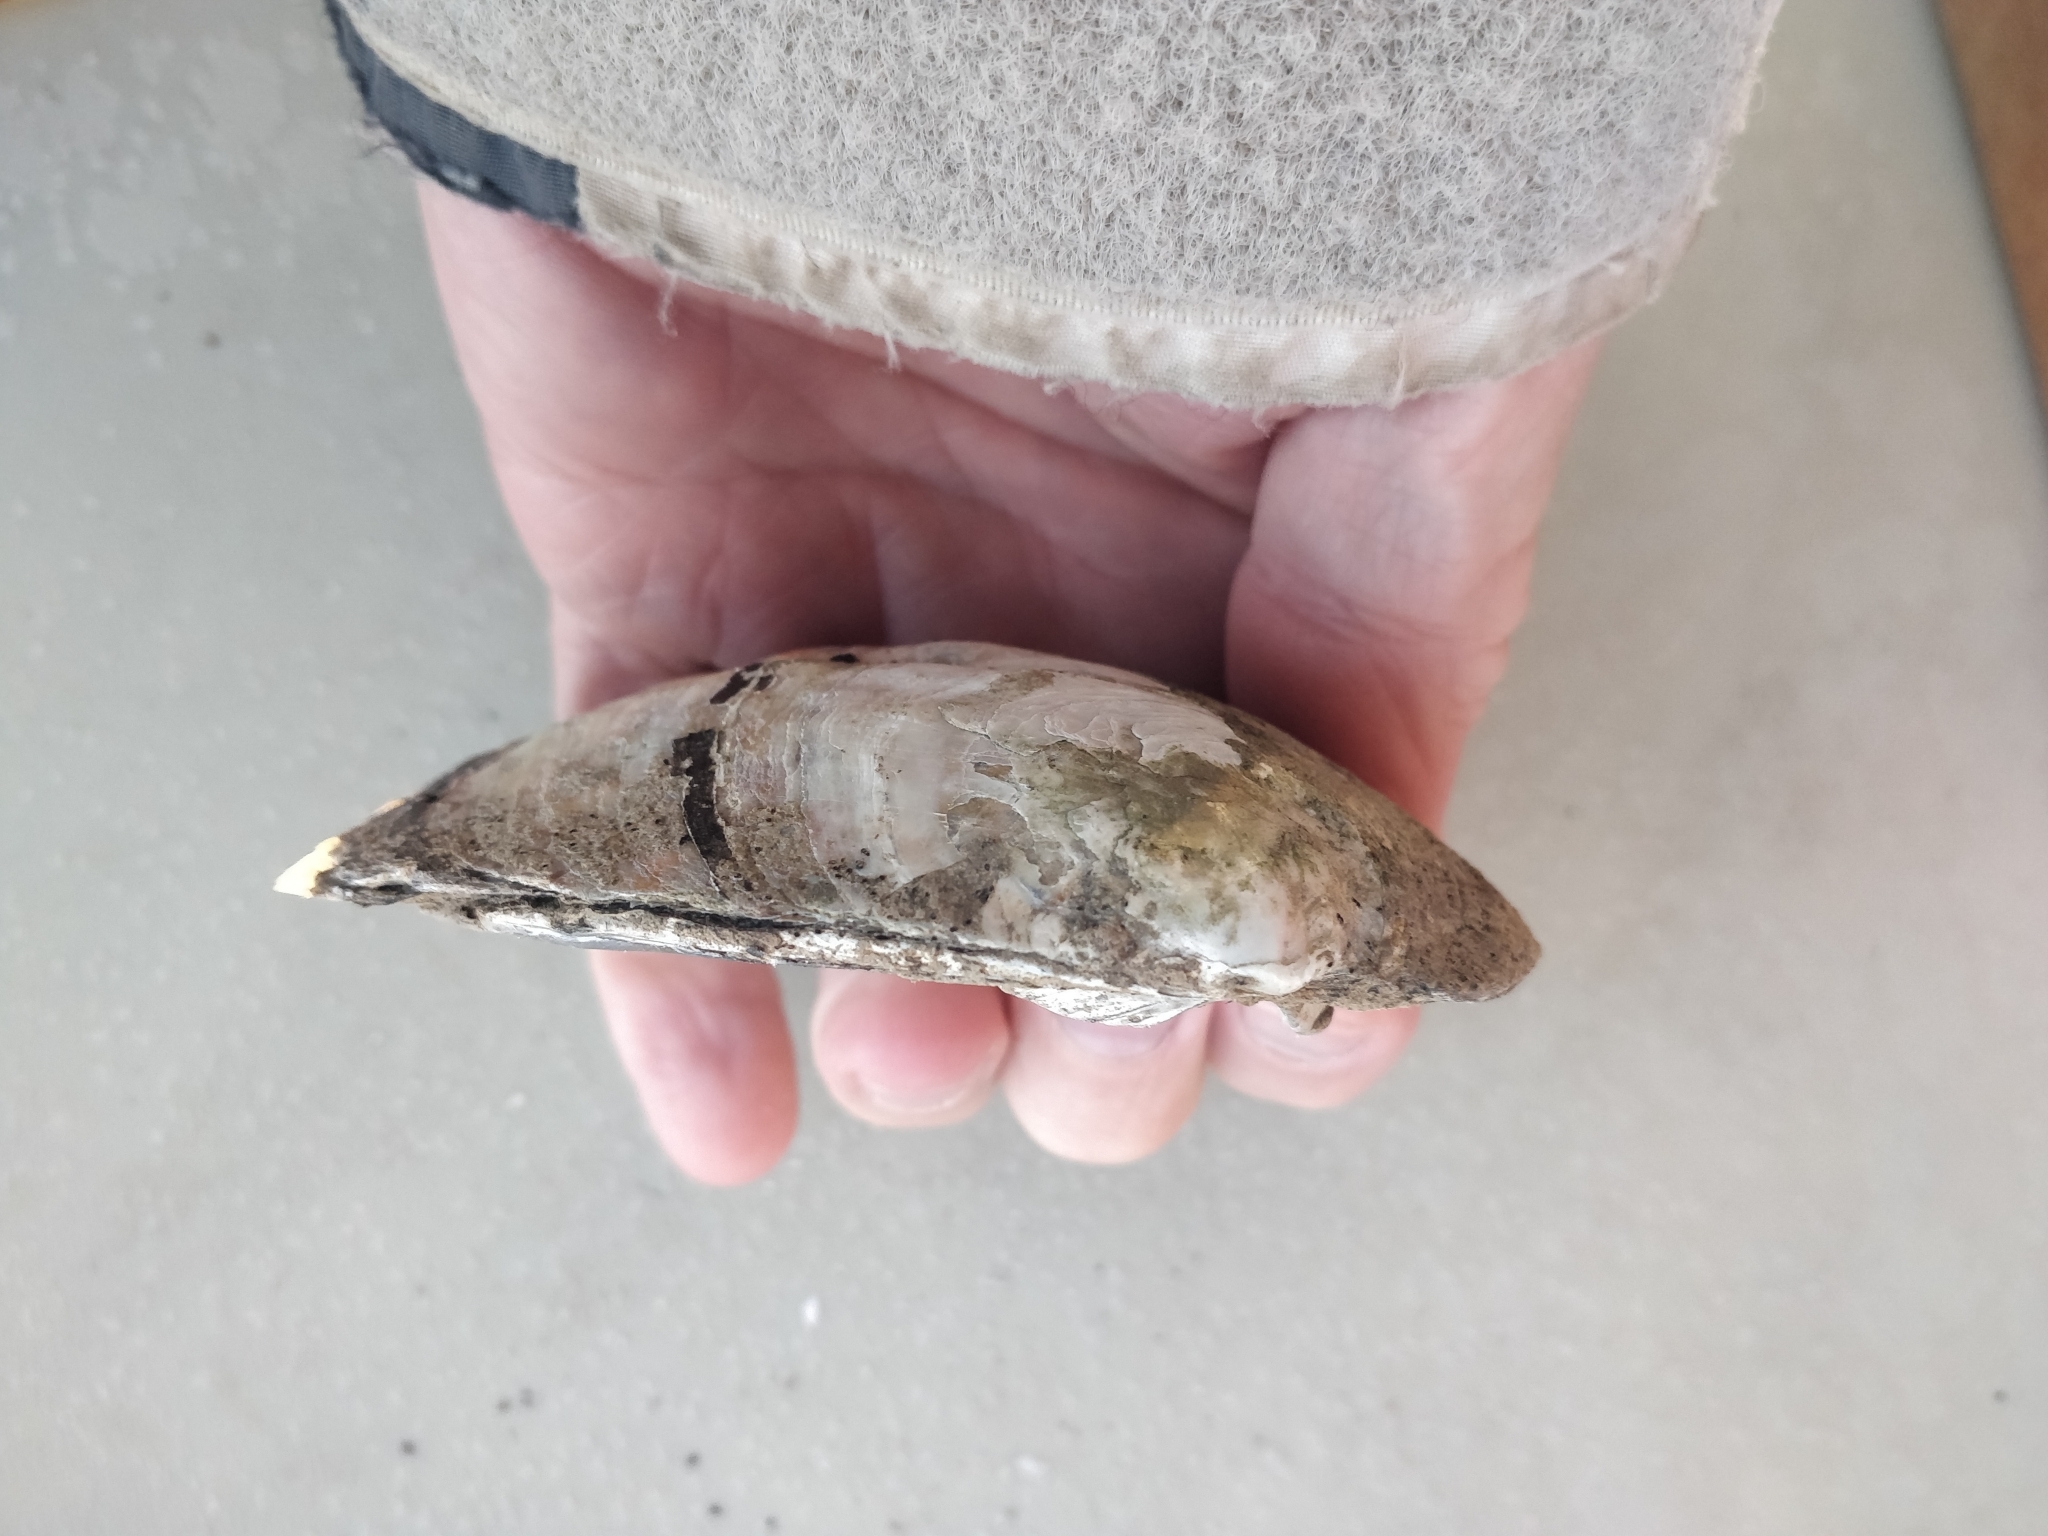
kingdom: Animalia
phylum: Mollusca
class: Bivalvia
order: Unionida
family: Unionidae
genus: Amblema
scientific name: Amblema plicata
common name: Threeridge
